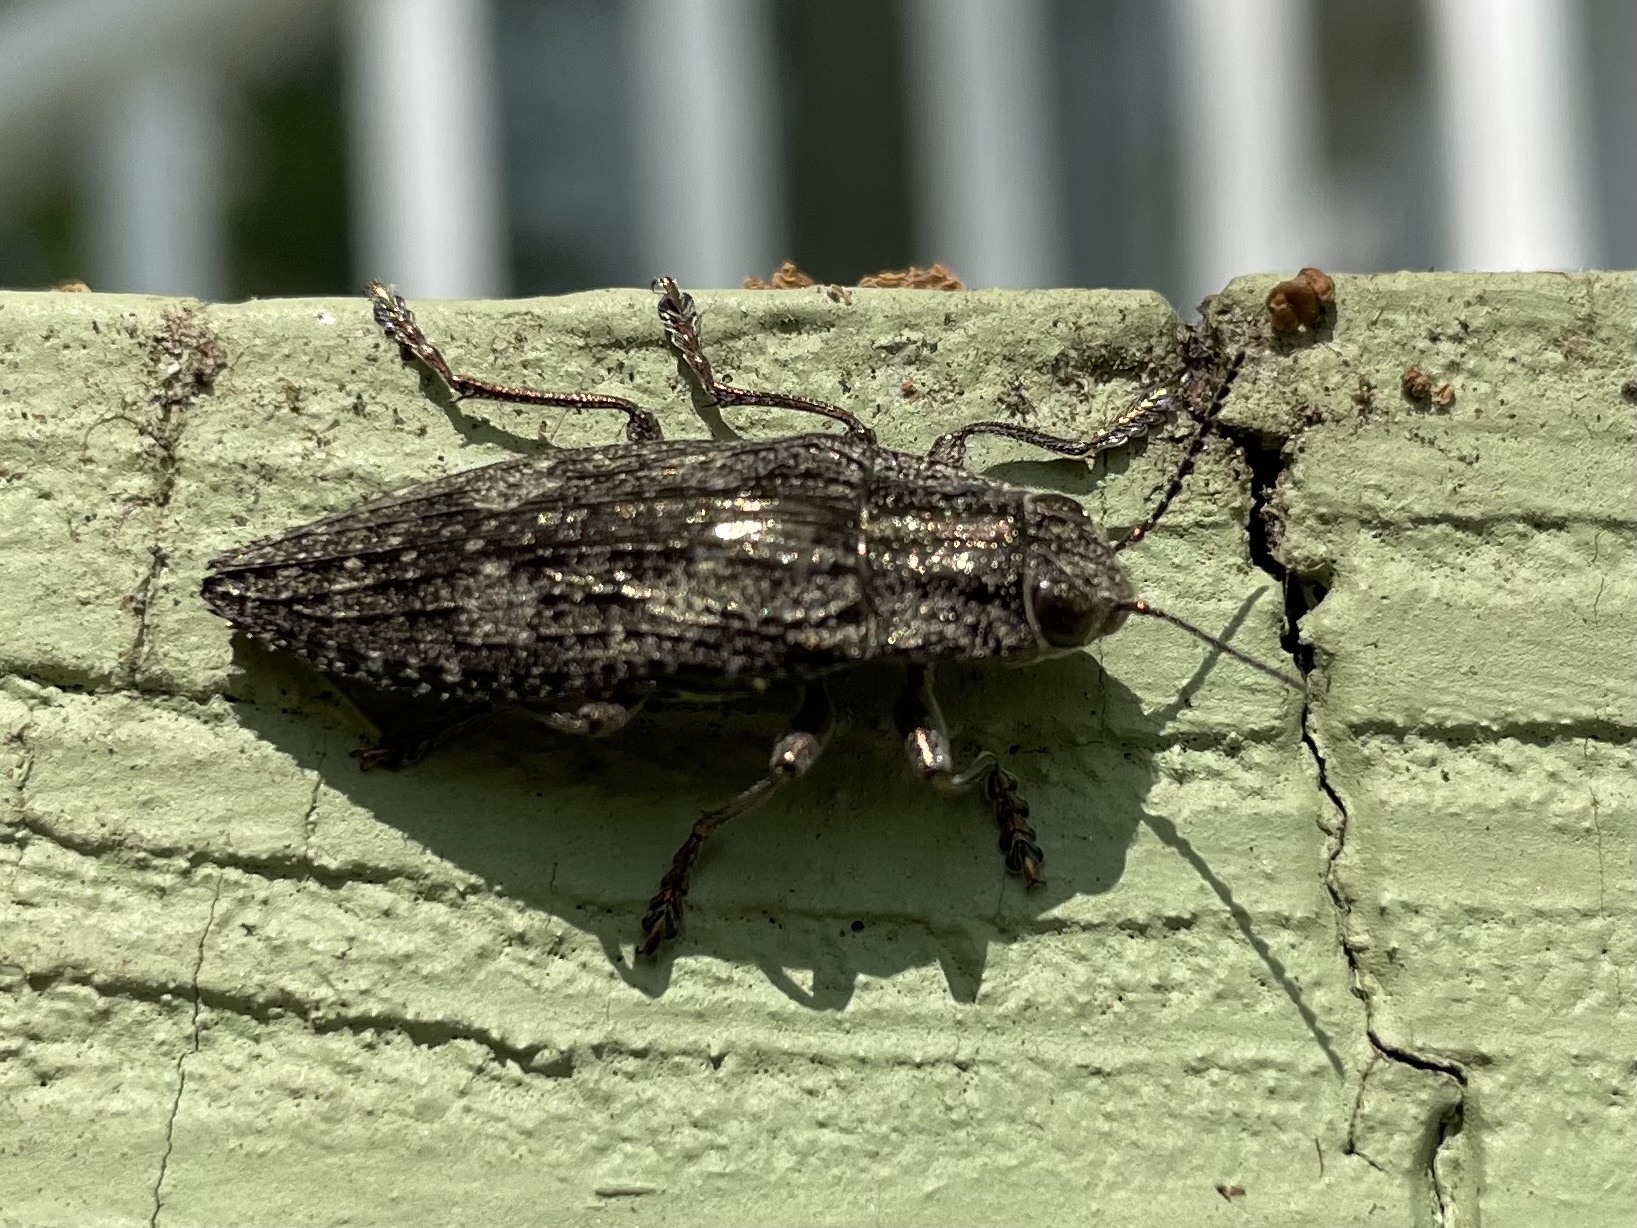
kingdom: Animalia
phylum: Arthropoda
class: Insecta
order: Coleoptera
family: Buprestidae
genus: Texania
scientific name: Texania campestris
